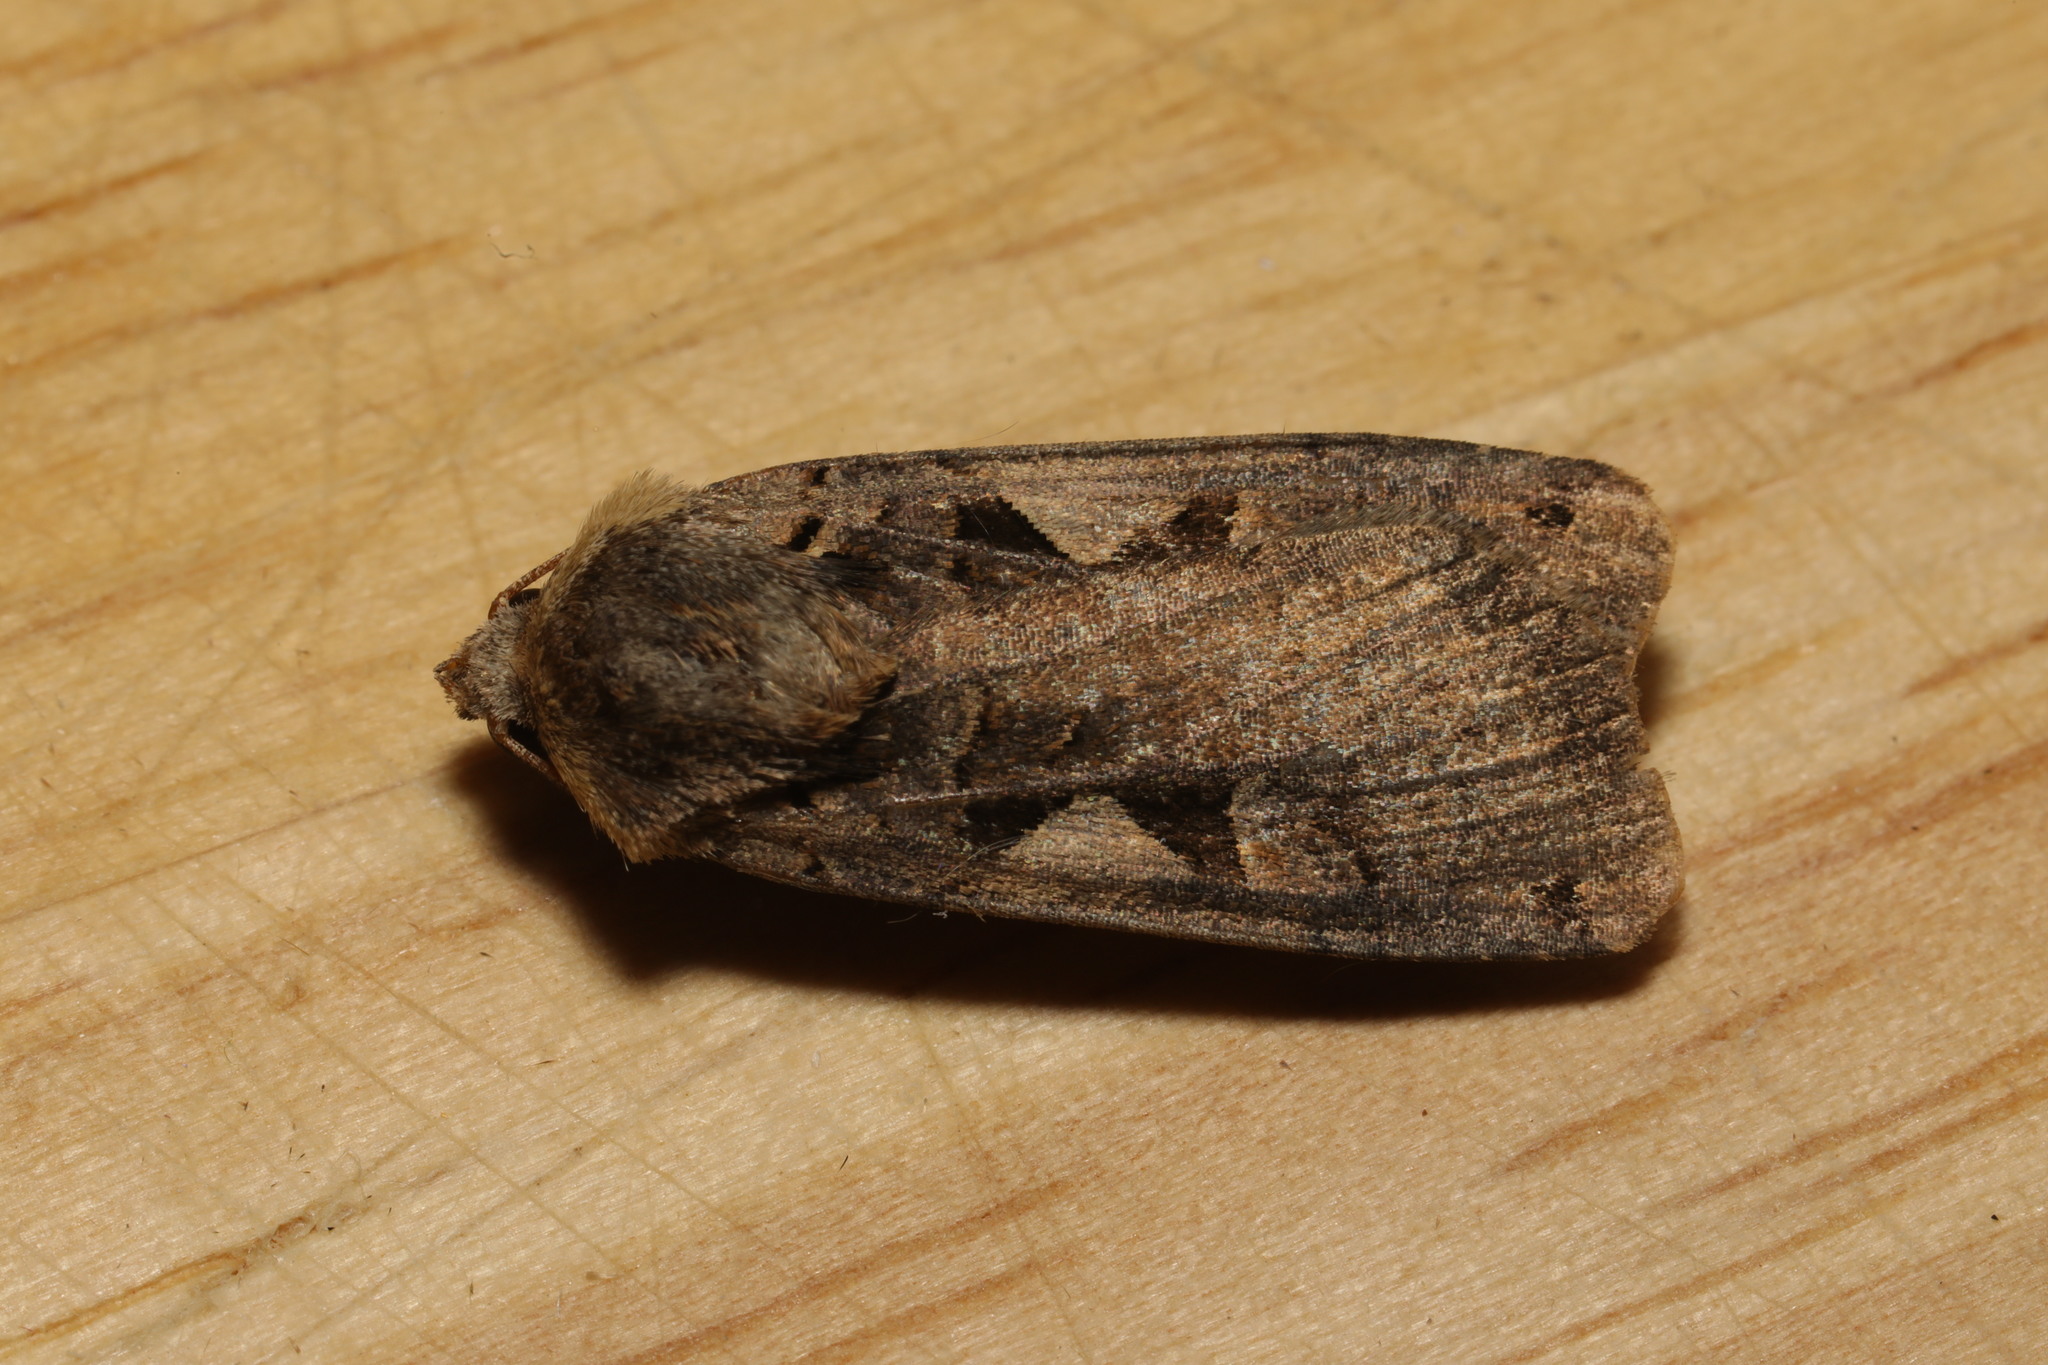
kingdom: Animalia
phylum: Arthropoda
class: Insecta
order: Lepidoptera
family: Noctuidae
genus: Xestia
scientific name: Xestia c-nigrum
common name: Setaceous hebrew character
